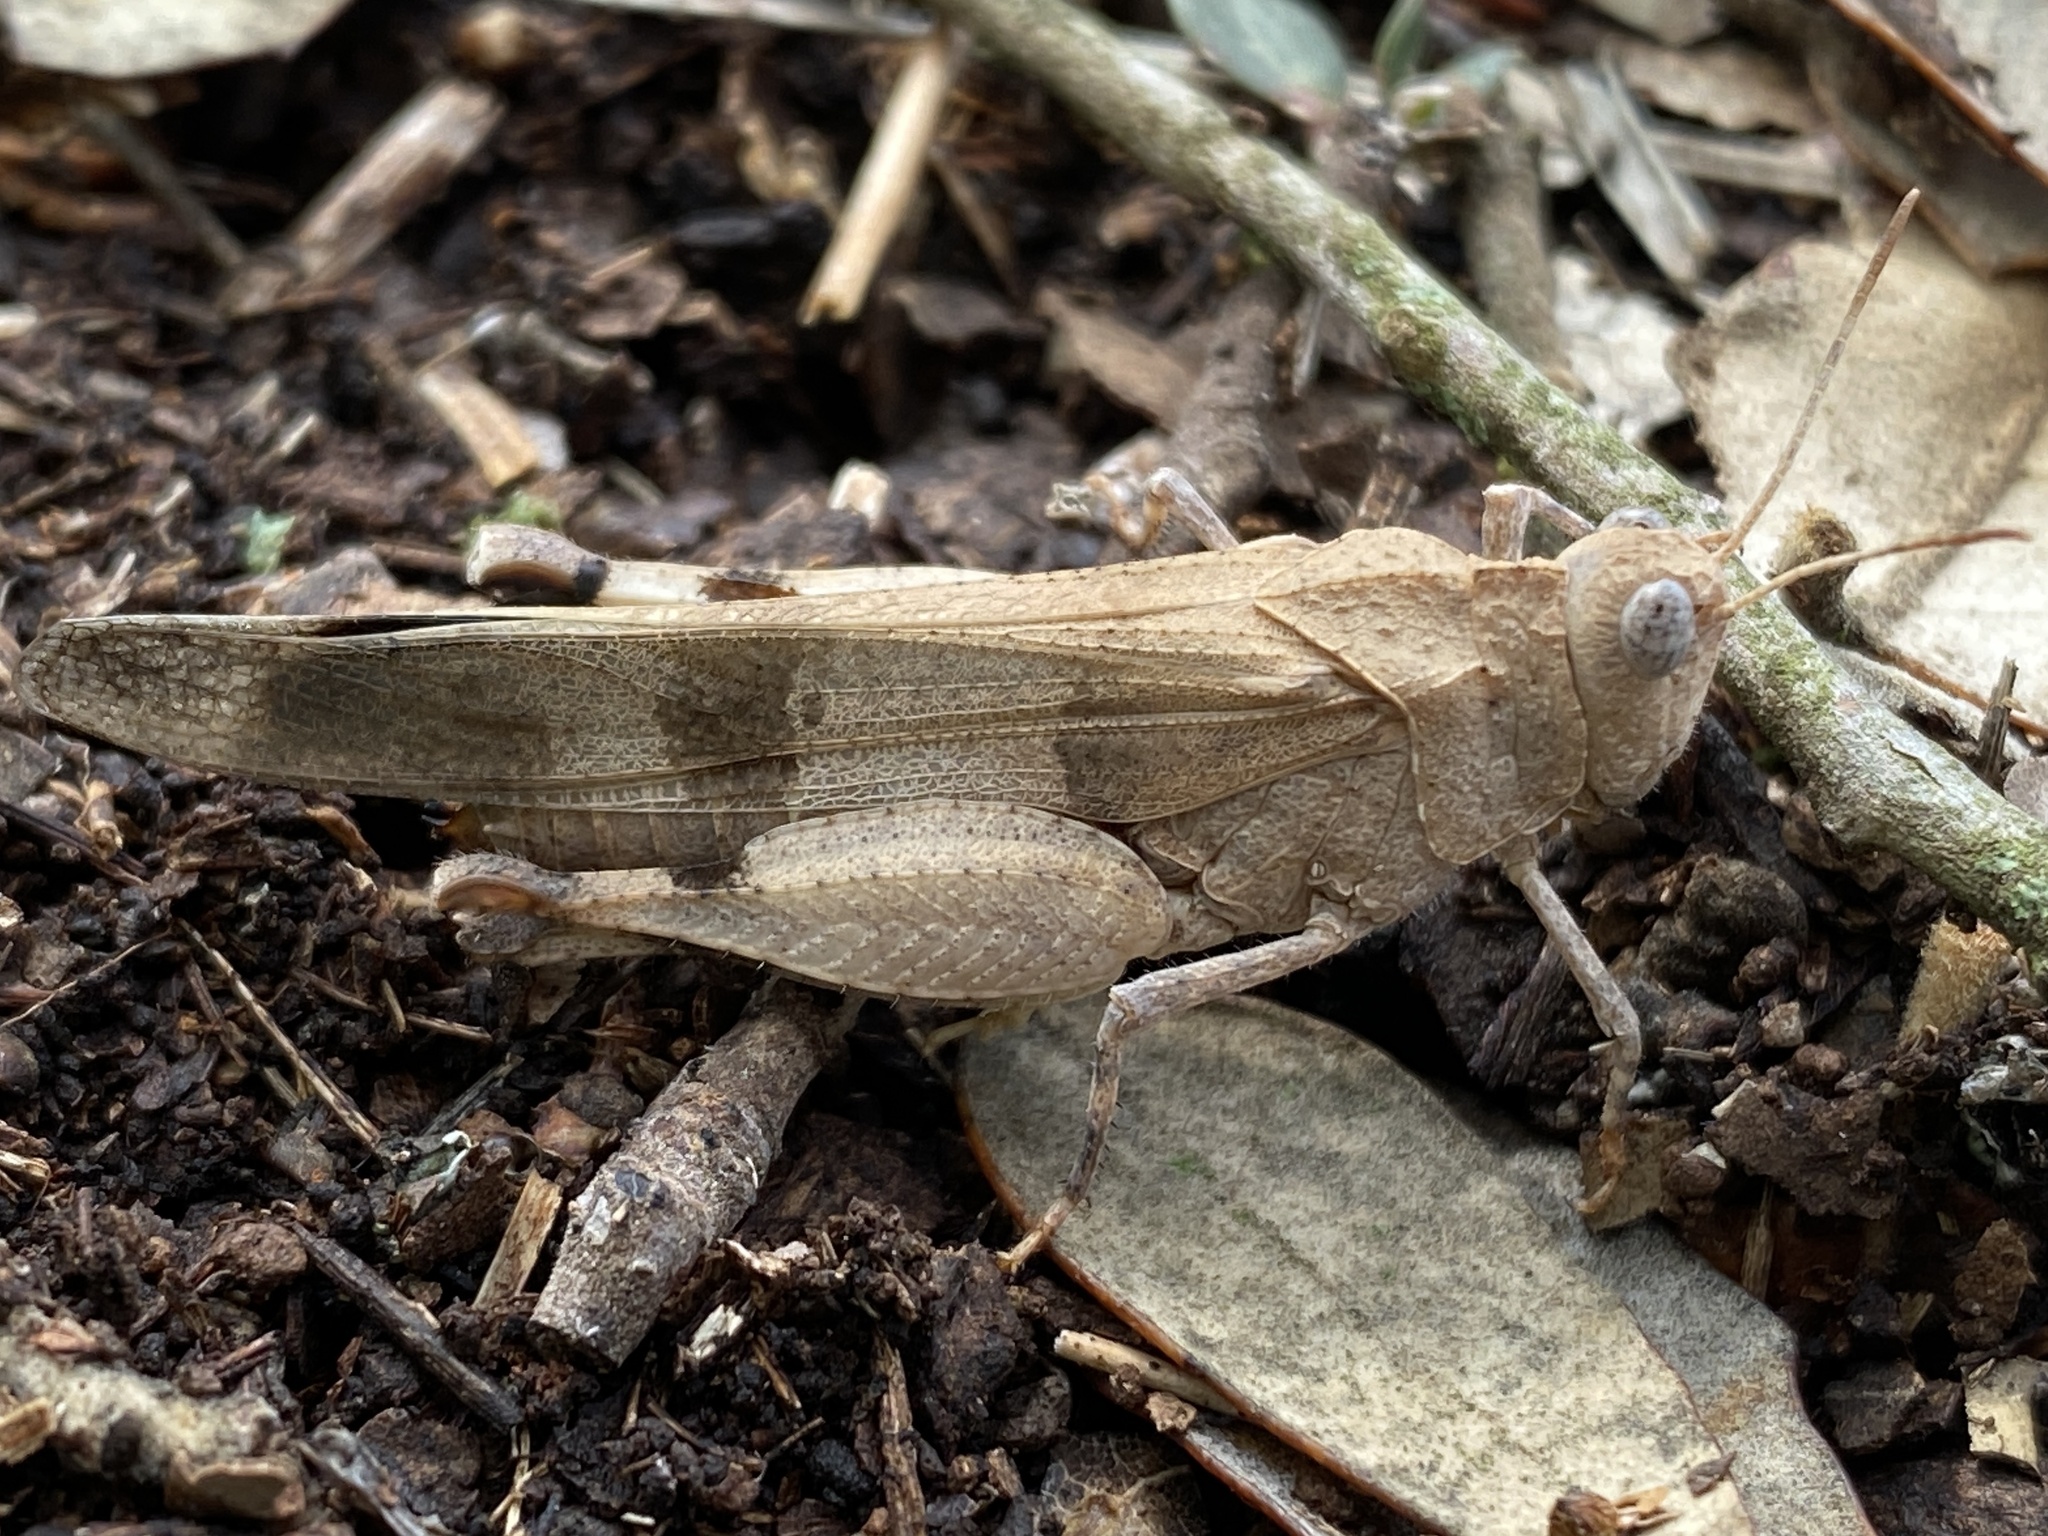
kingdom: Animalia
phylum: Arthropoda
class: Insecta
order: Orthoptera
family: Acrididae
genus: Oedipoda
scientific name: Oedipoda caerulescens
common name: Blue-winged grasshopper
